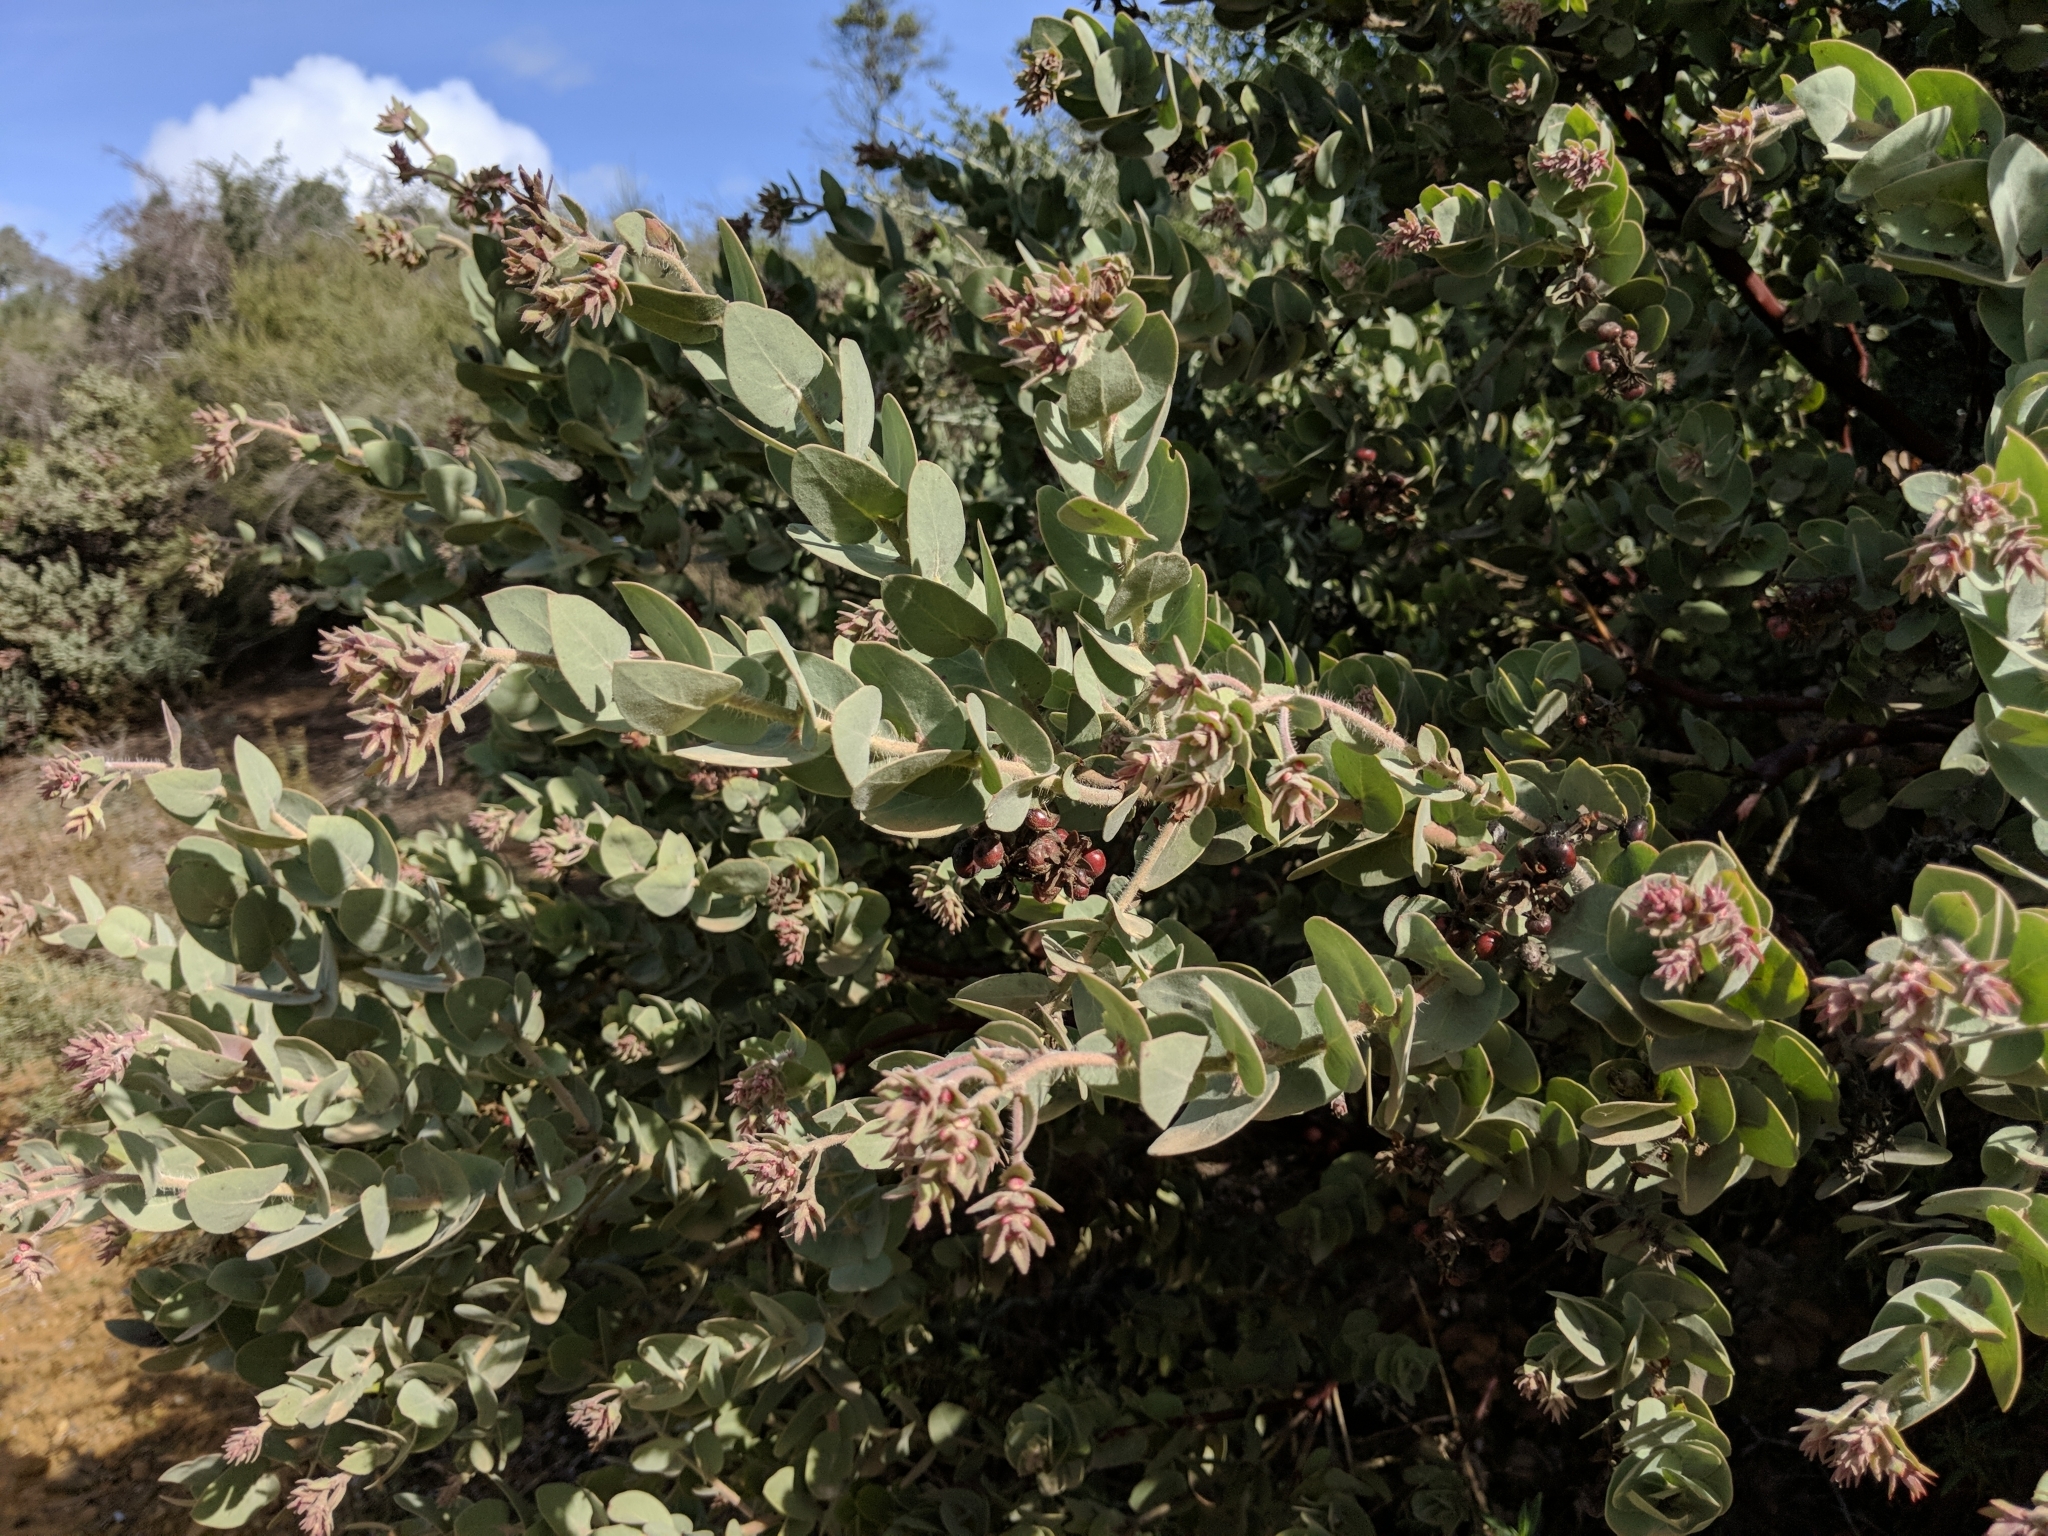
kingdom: Plantae
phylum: Tracheophyta
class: Magnoliopsida
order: Ericales
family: Ericaceae
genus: Arctostaphylos
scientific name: Arctostaphylos auriculata
